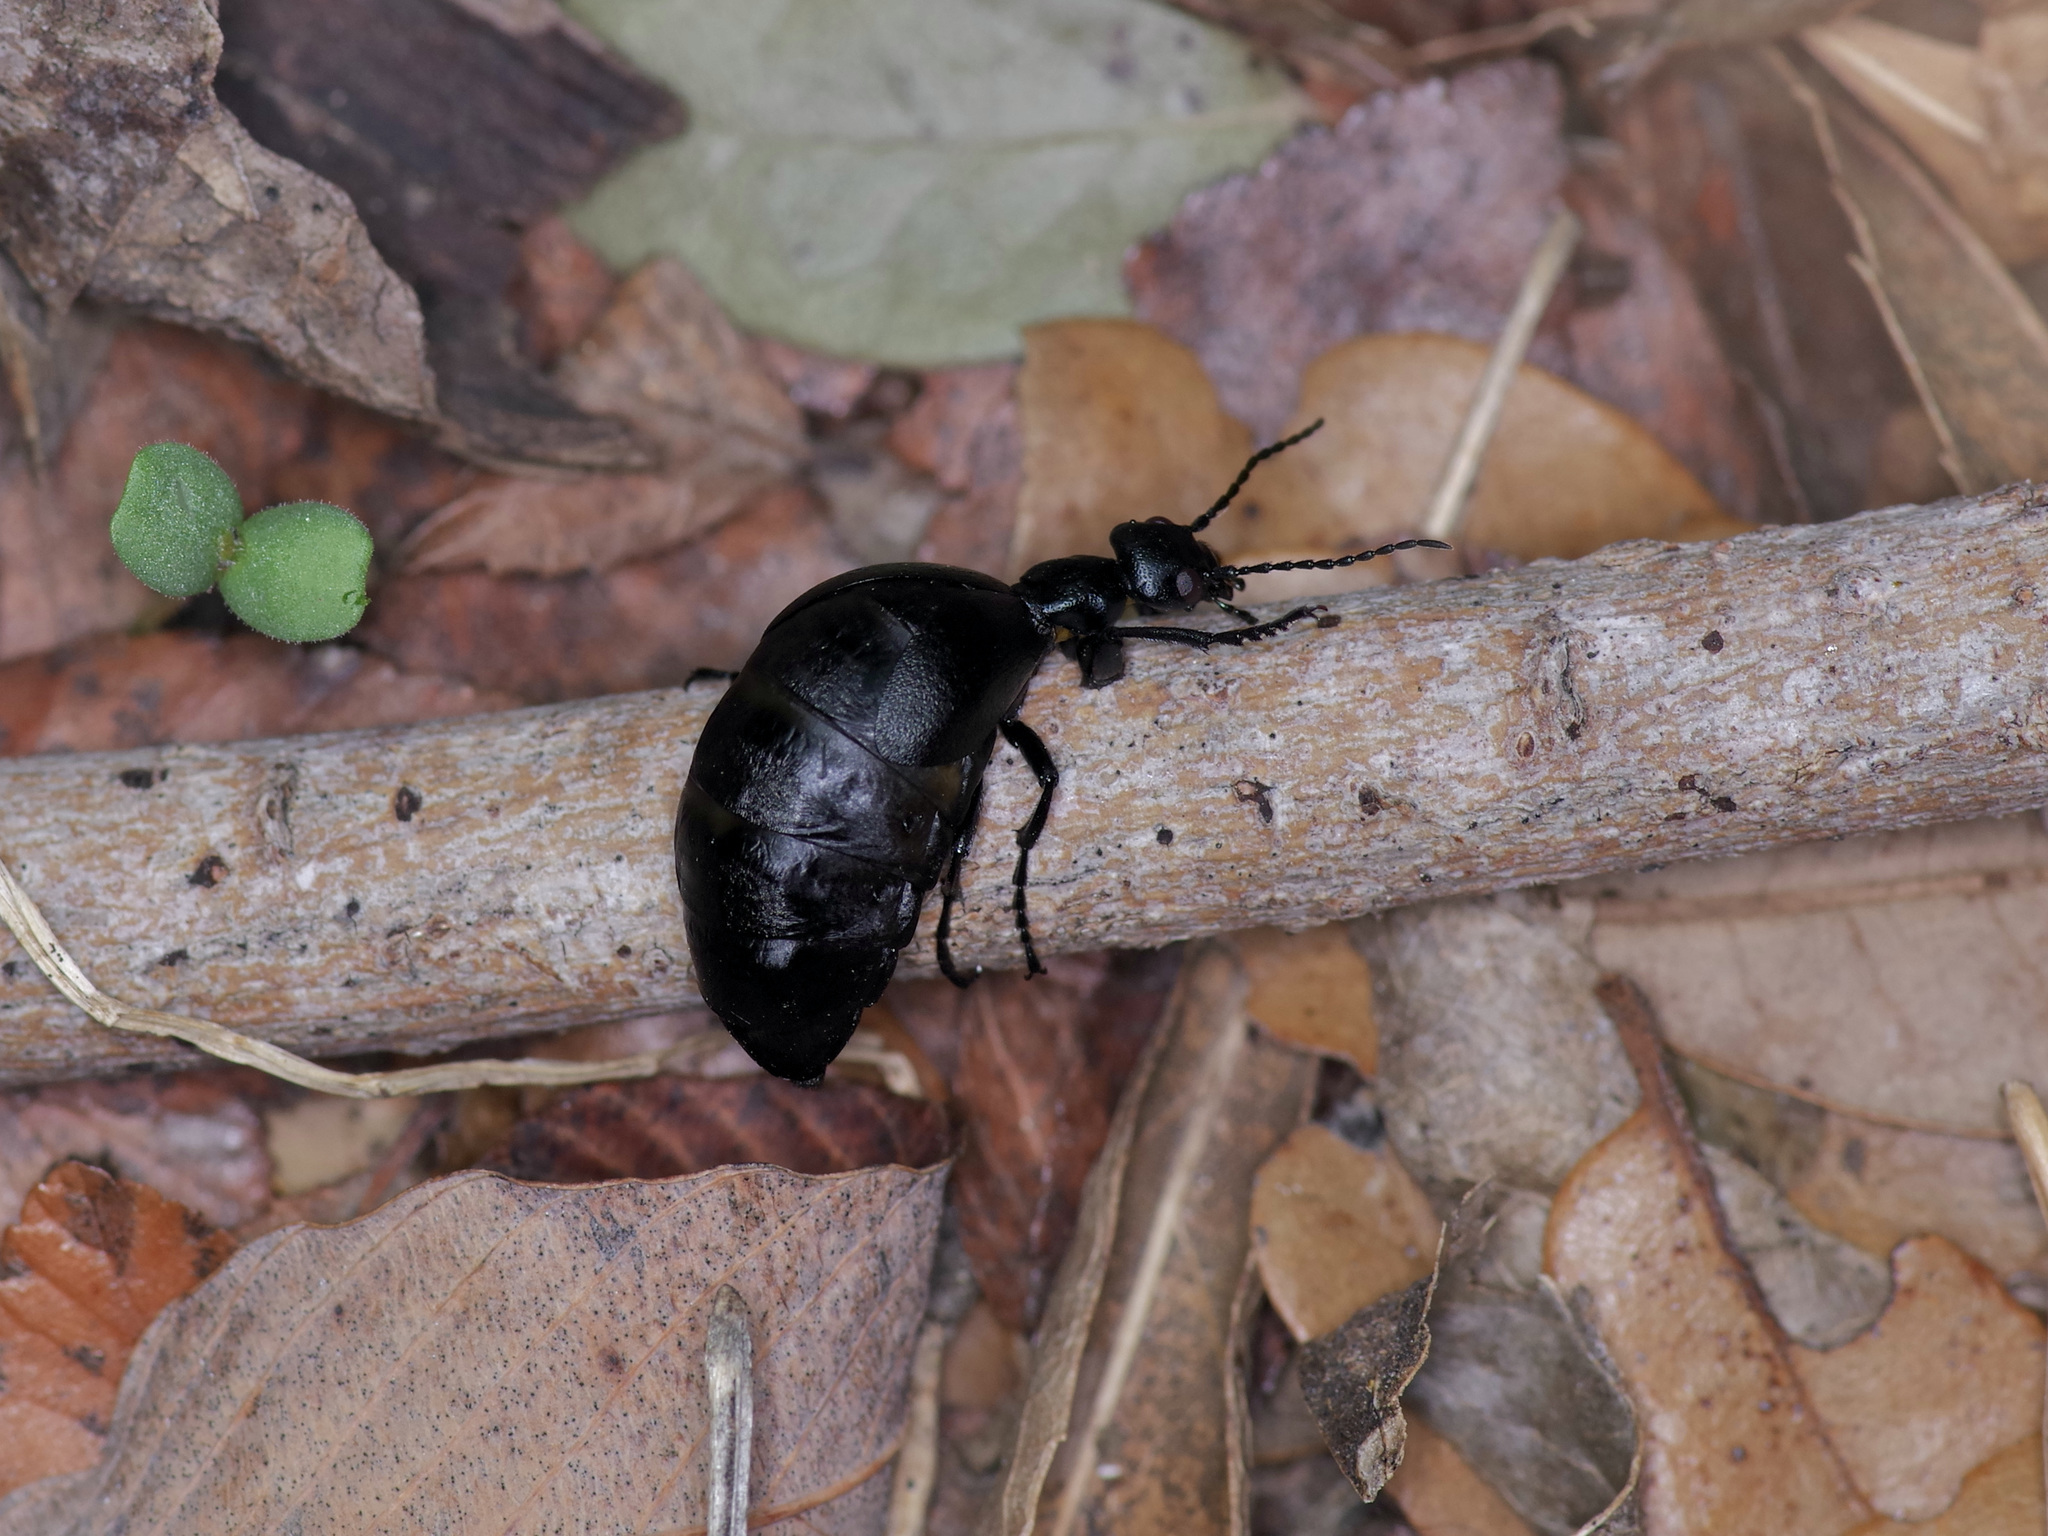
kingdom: Animalia
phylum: Arthropoda
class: Insecta
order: Coleoptera
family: Meloidae
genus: Meloe
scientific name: Meloe americanus
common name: Buttercup oil beetle
